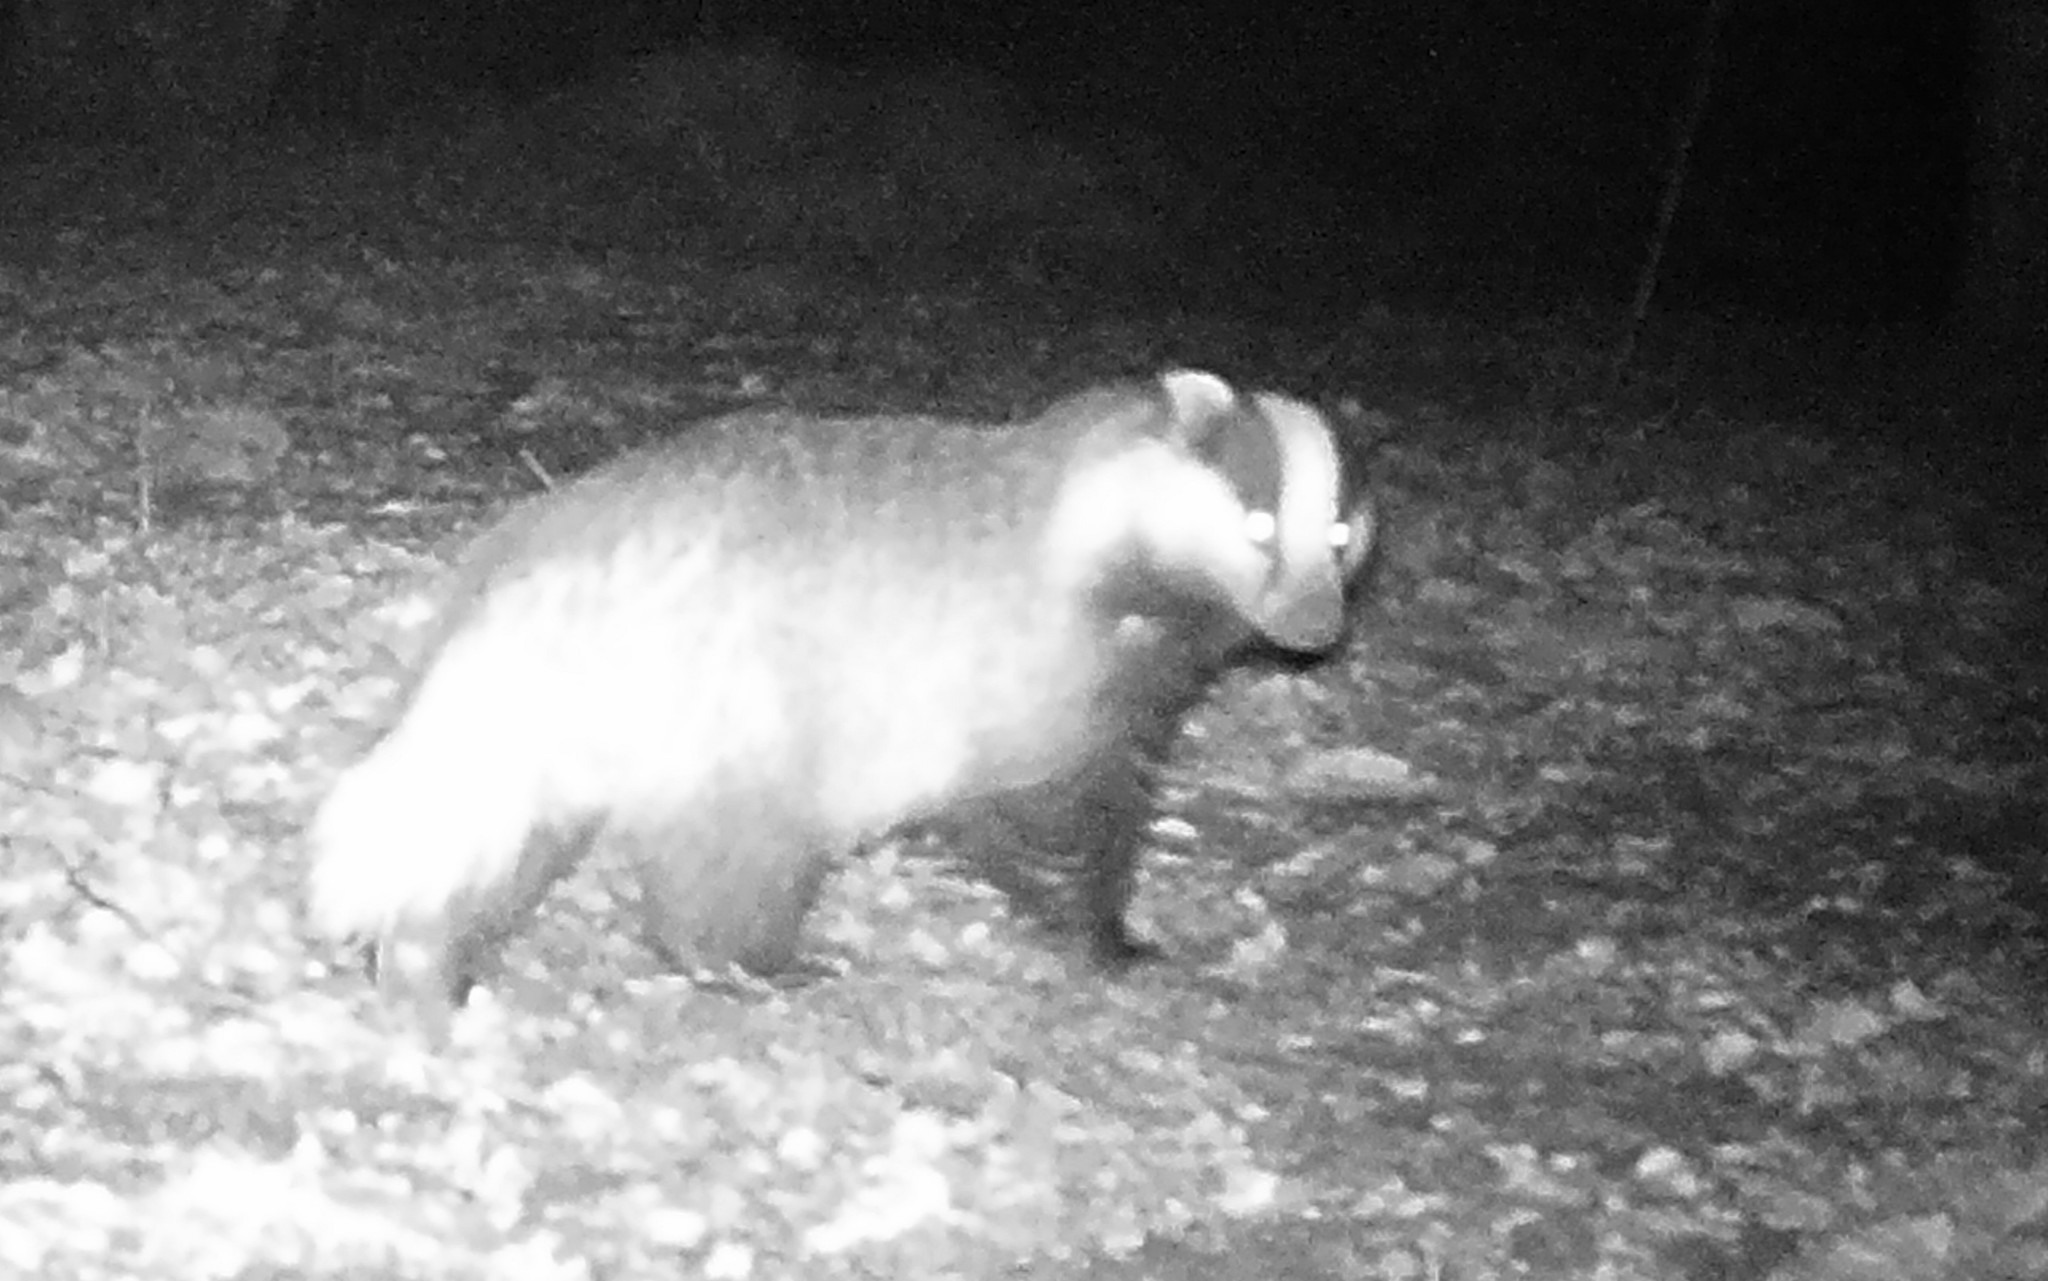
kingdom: Animalia
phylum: Chordata
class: Mammalia
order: Carnivora
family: Mustelidae
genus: Meles
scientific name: Meles meles
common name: Eurasian badger
